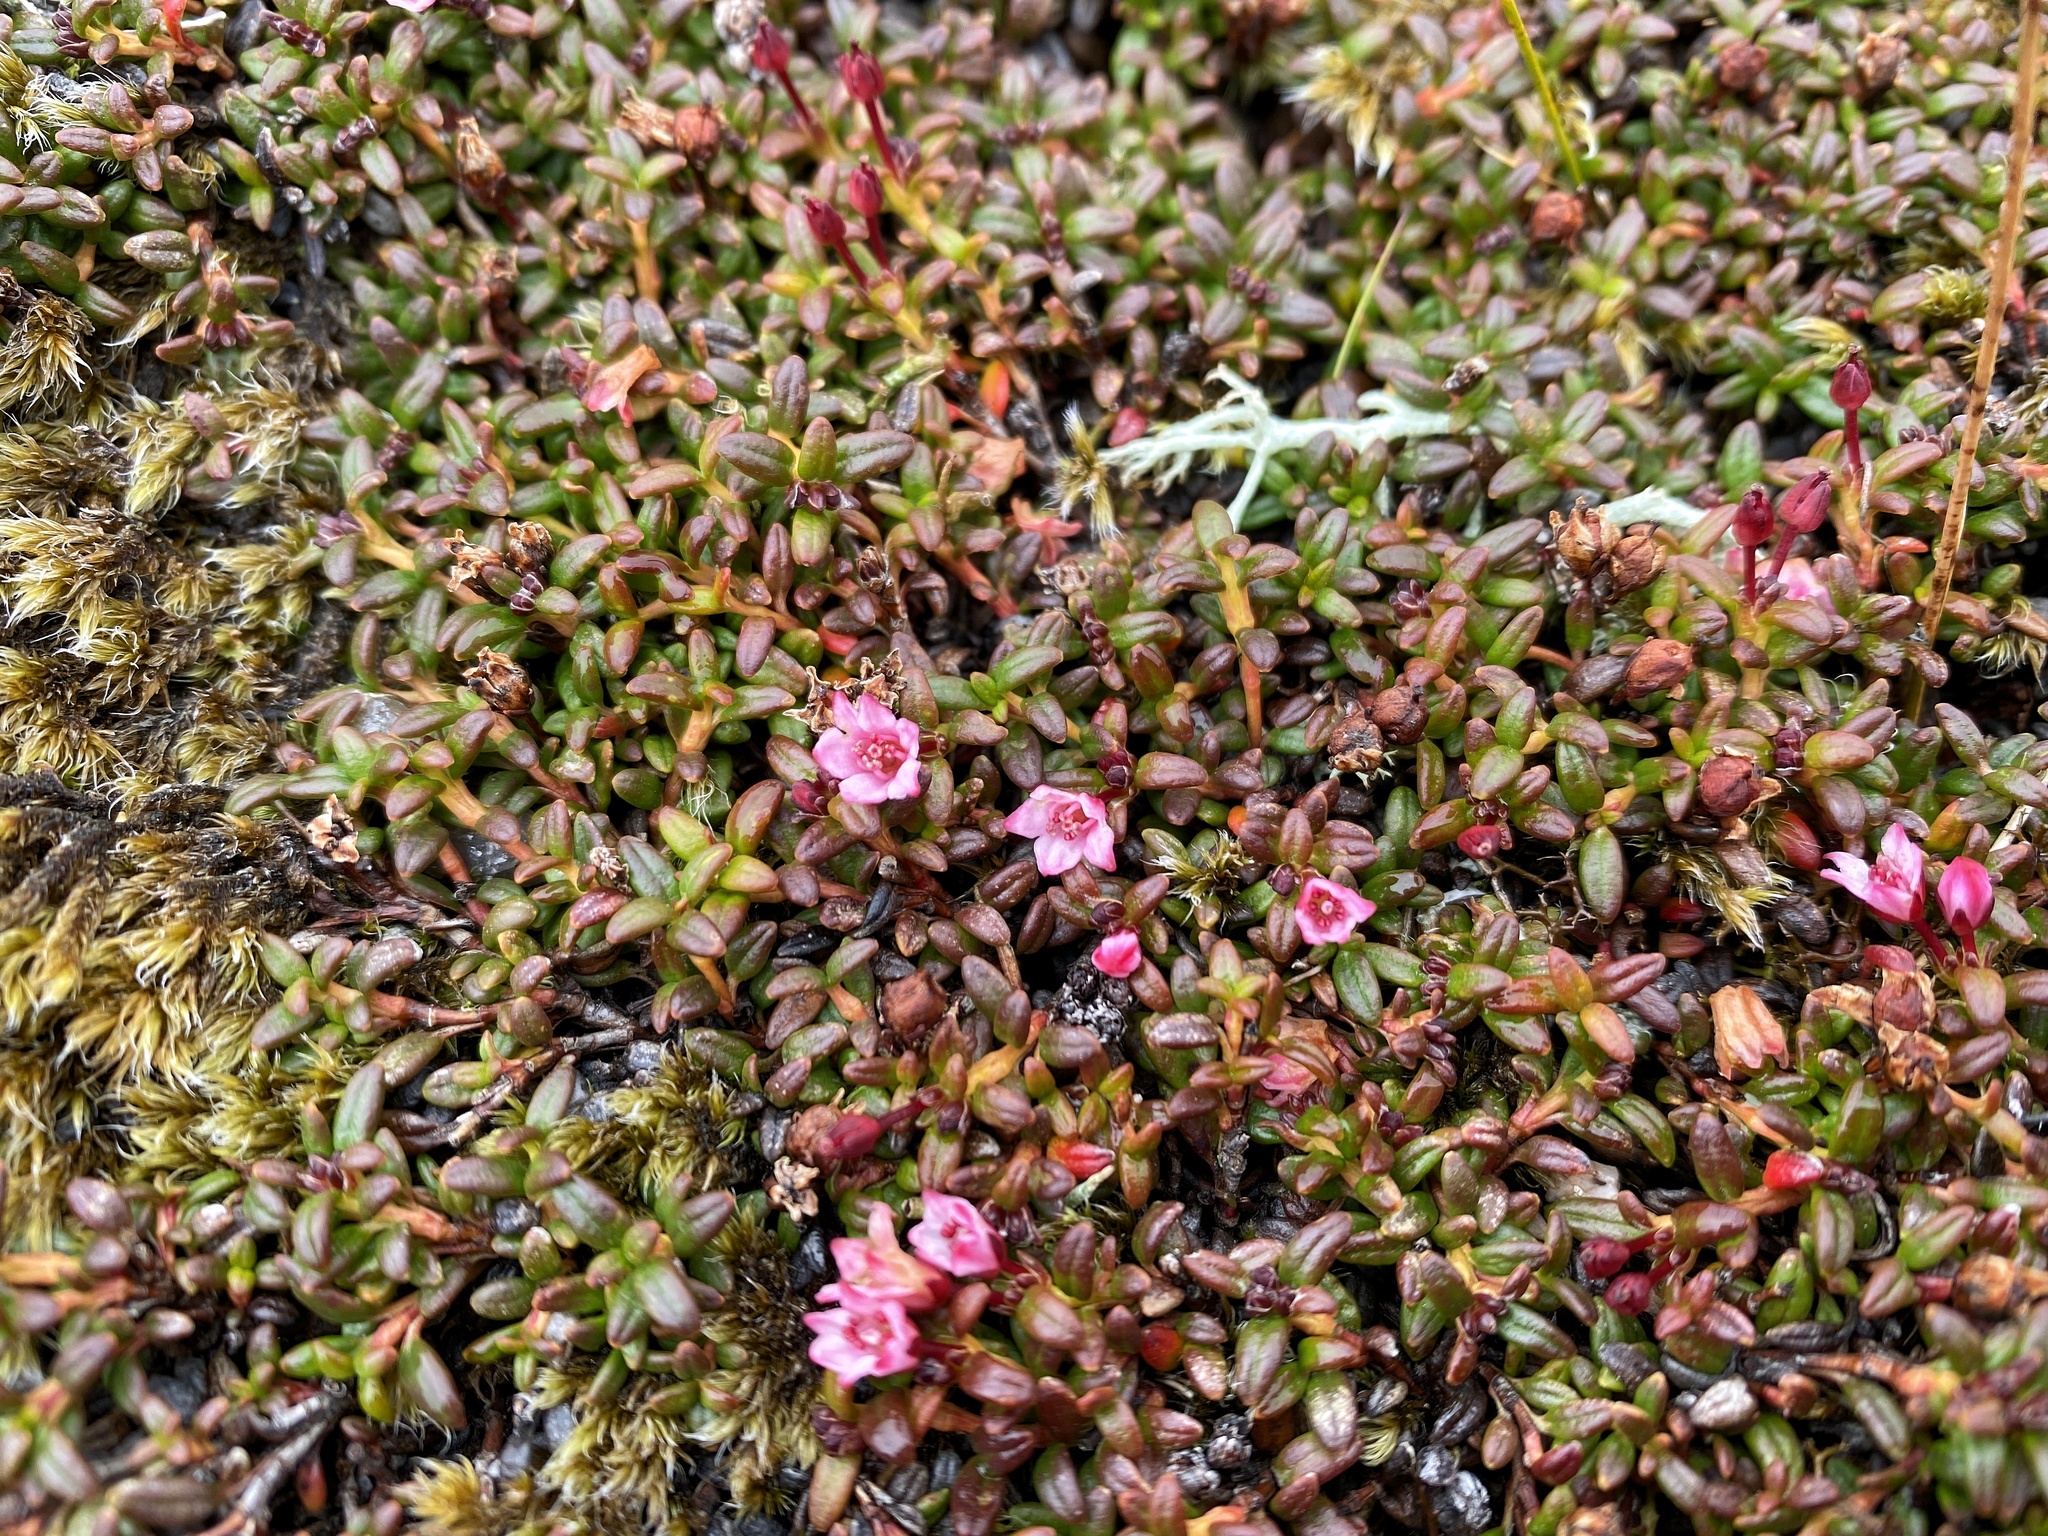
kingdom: Plantae
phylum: Tracheophyta
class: Magnoliopsida
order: Ericales
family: Ericaceae
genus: Kalmia
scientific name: Kalmia procumbens
